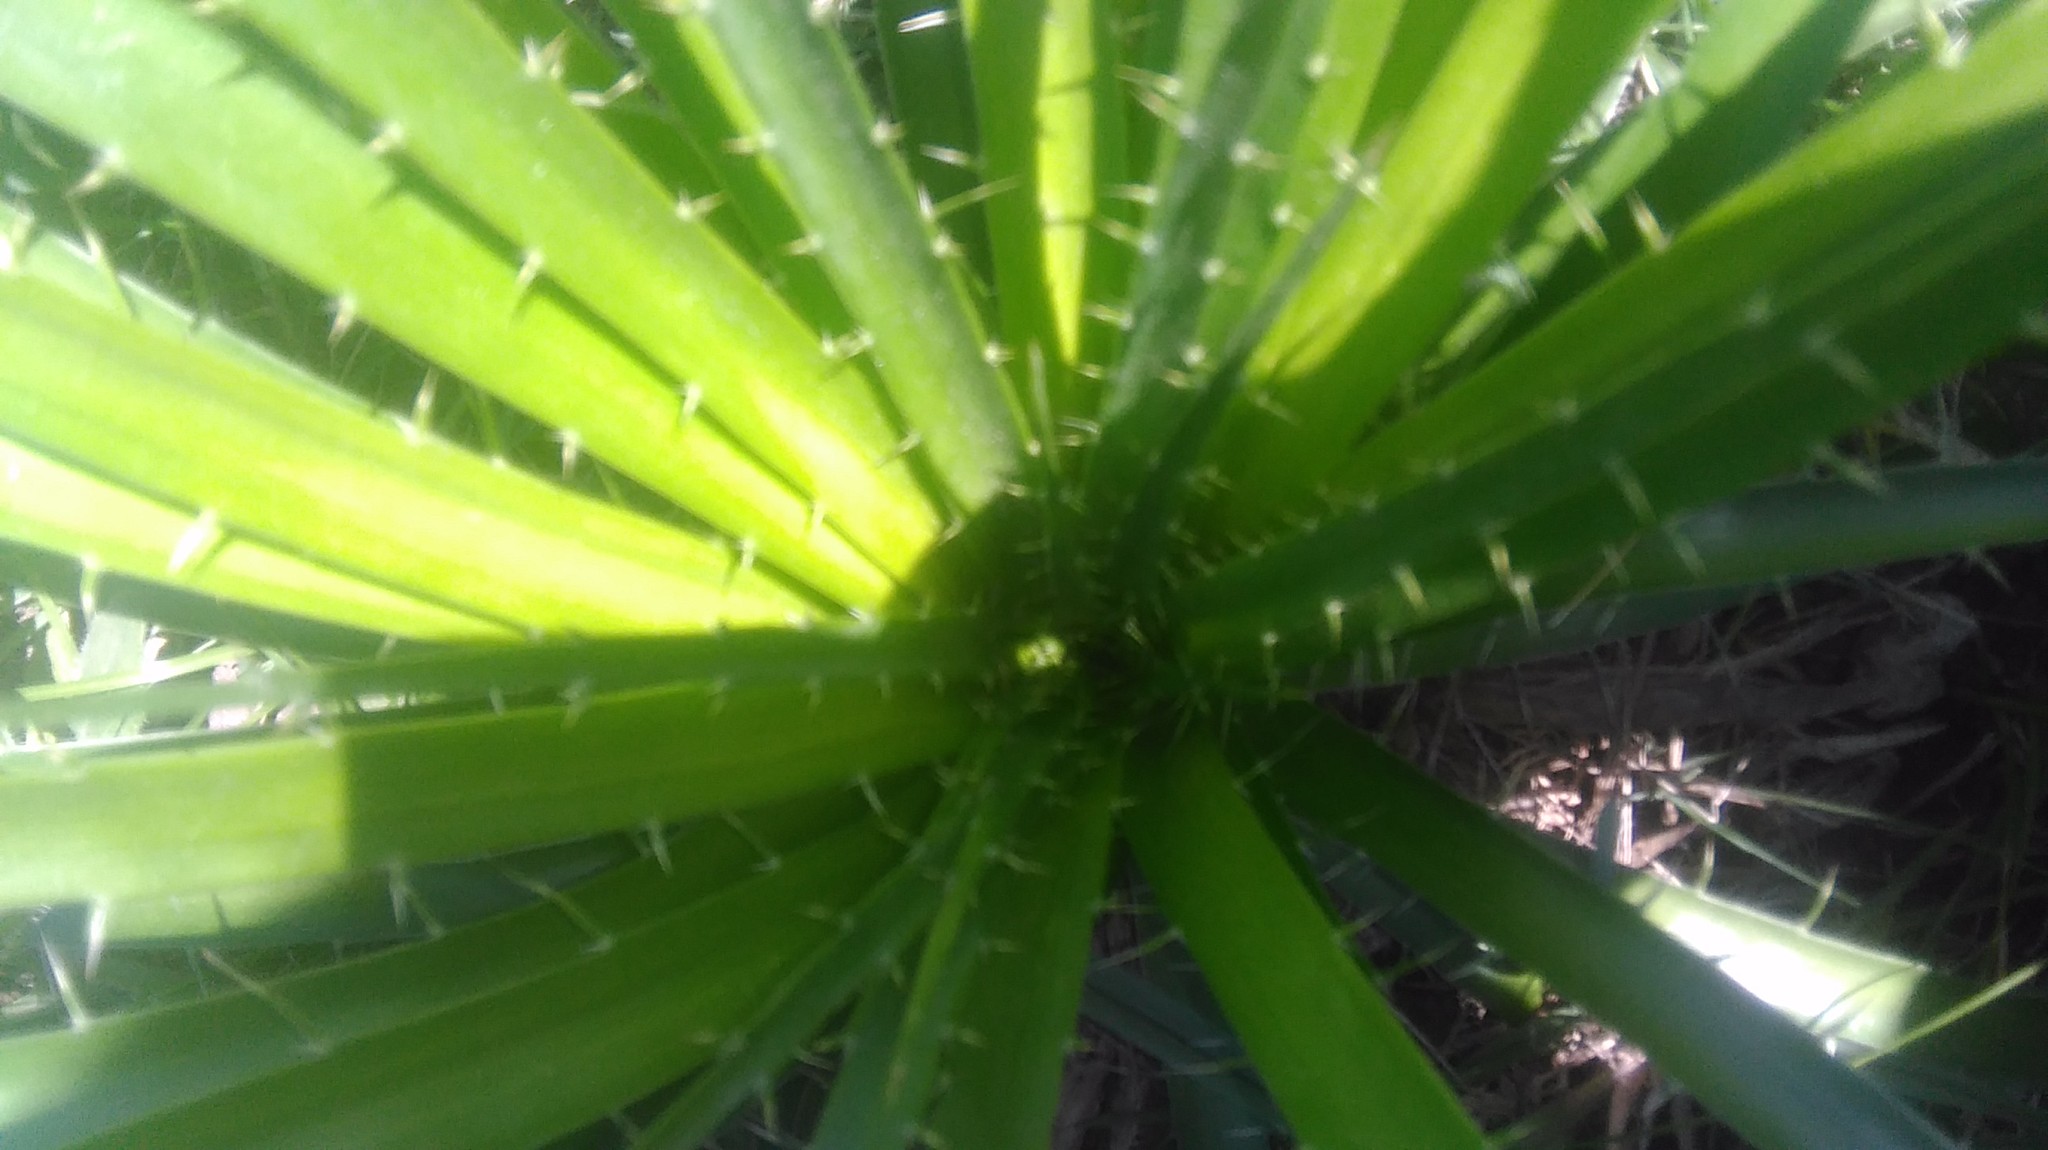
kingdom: Plantae
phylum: Tracheophyta
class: Magnoliopsida
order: Apiales
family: Apiaceae
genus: Eryngium
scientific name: Eryngium horridum
